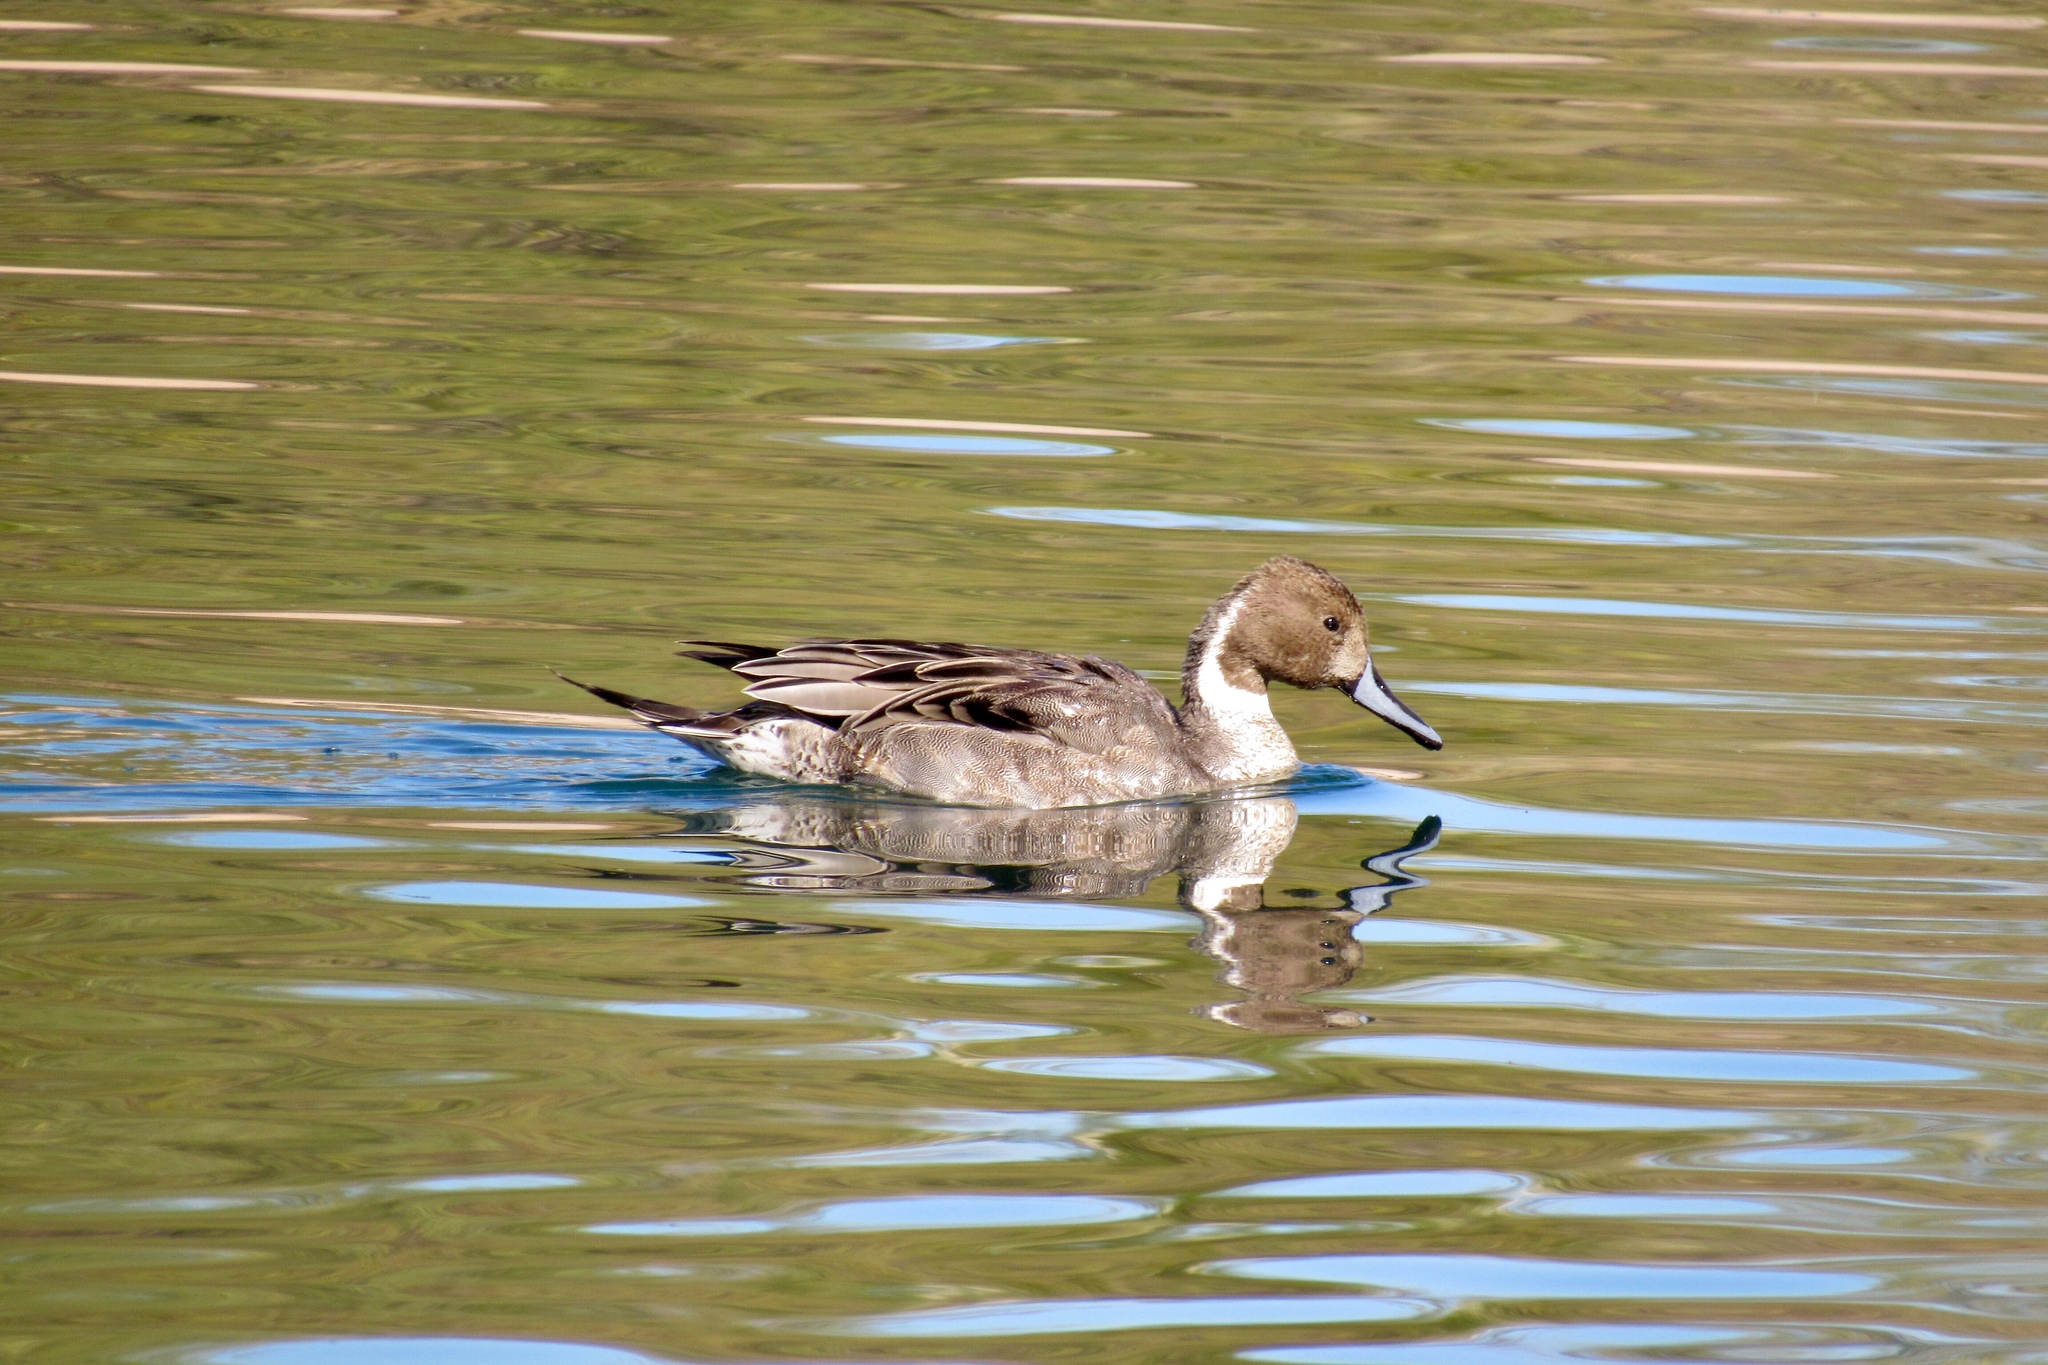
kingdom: Animalia
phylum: Chordata
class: Aves
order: Anseriformes
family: Anatidae
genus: Anas
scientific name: Anas acuta
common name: Northern pintail
